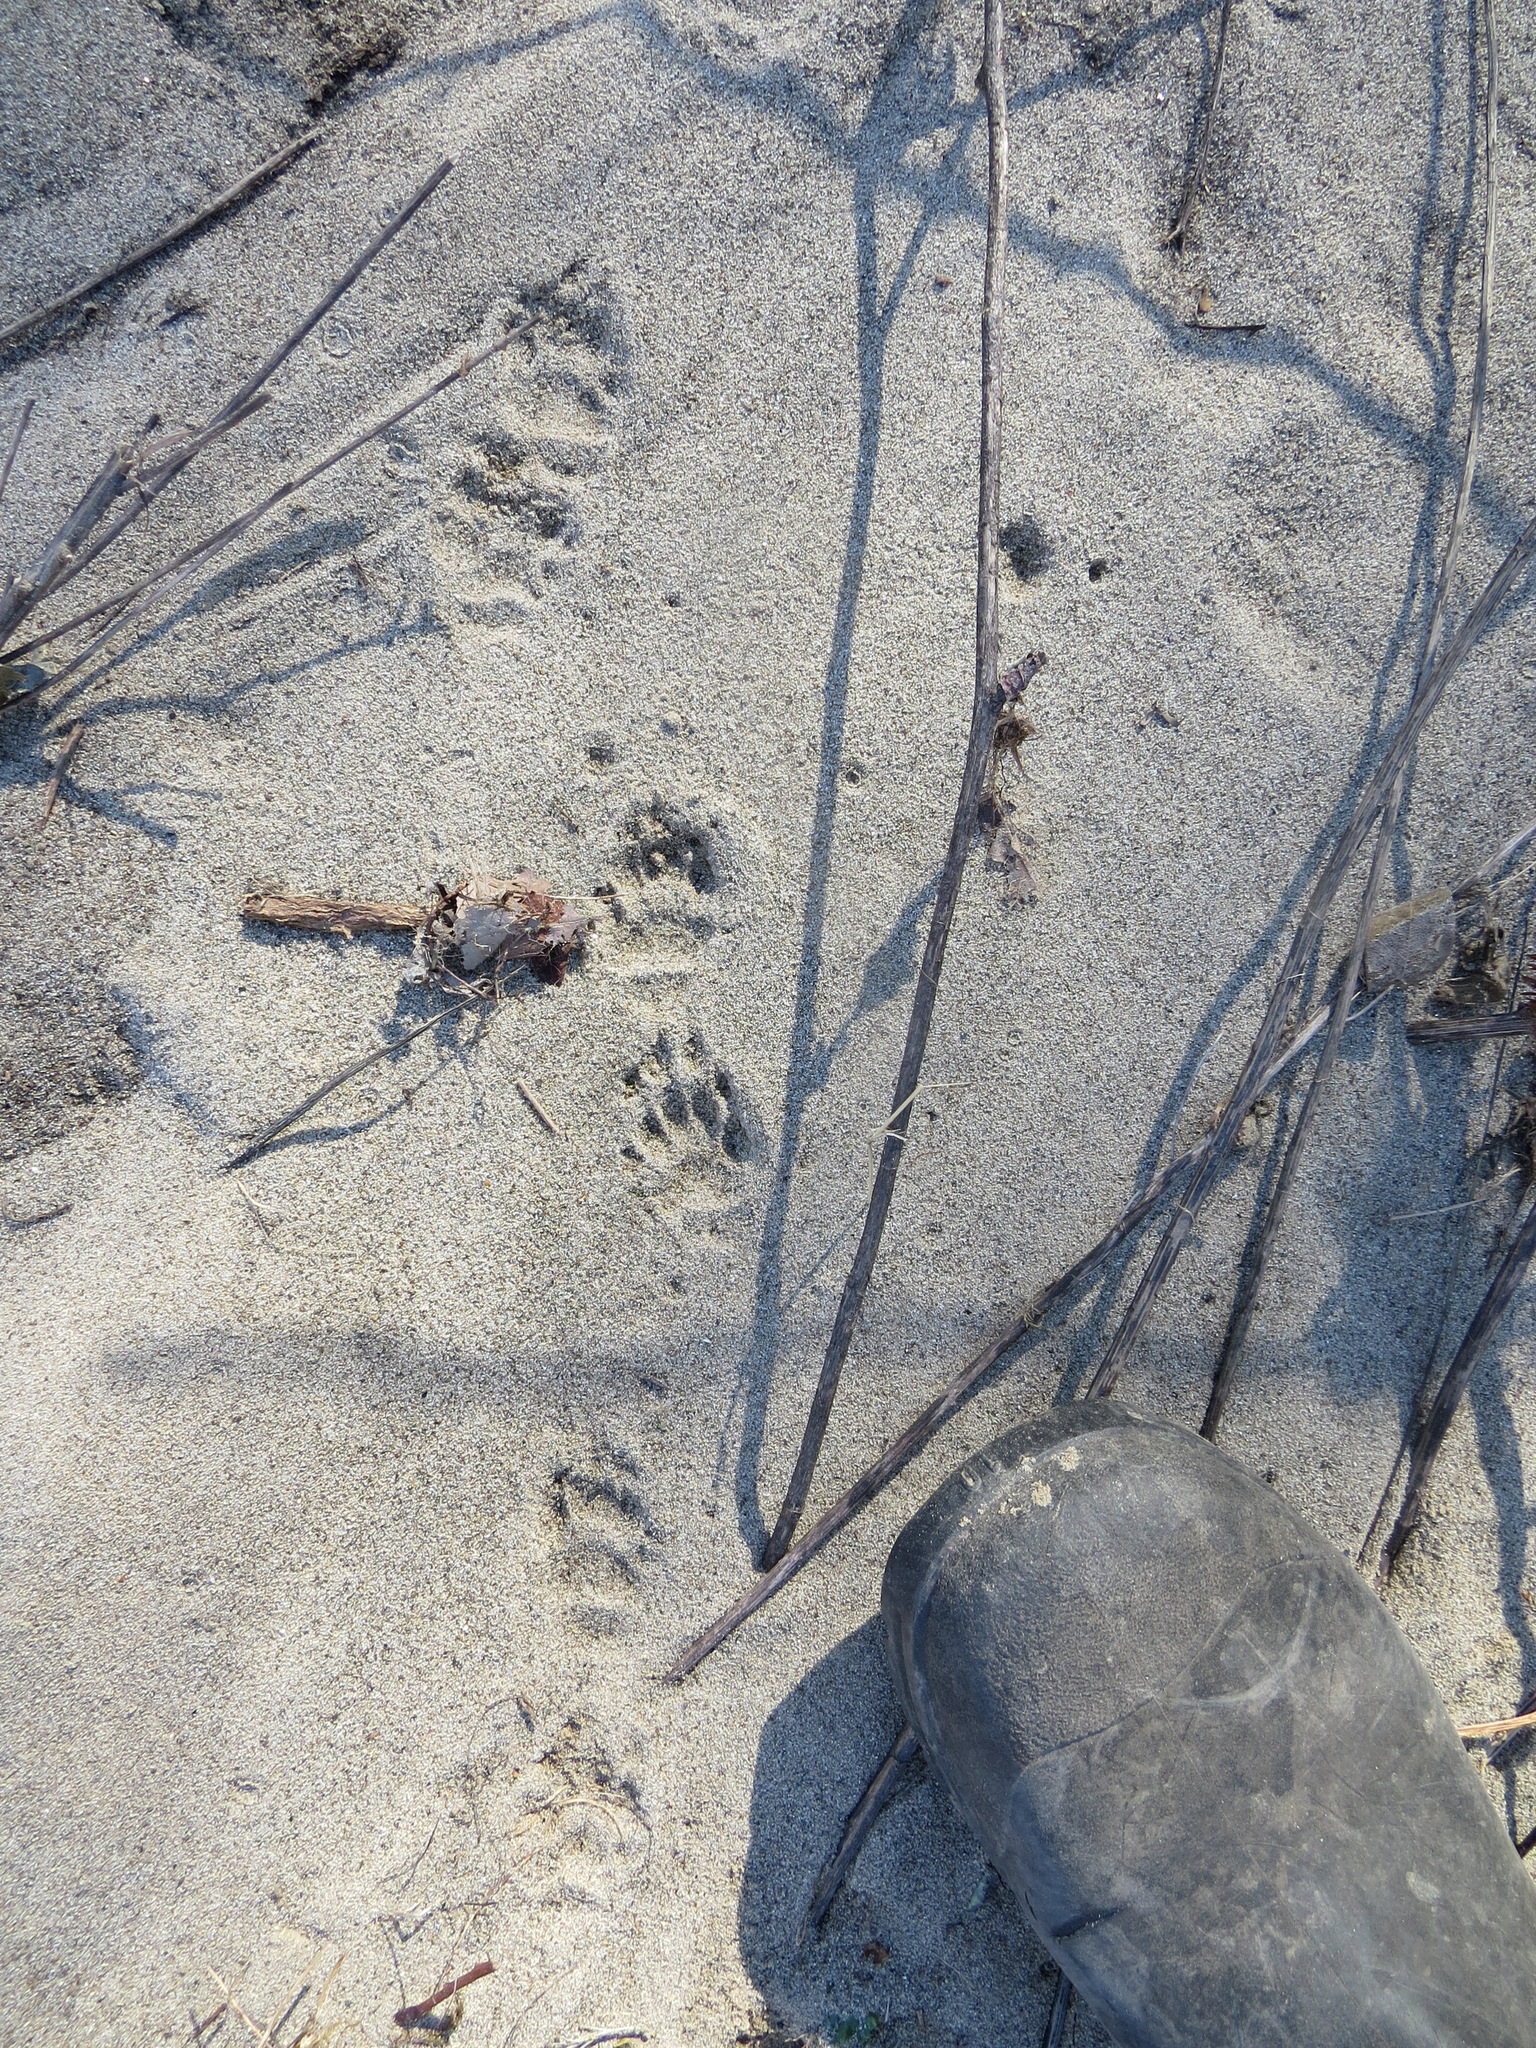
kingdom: Animalia
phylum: Chordata
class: Mammalia
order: Carnivora
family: Mephitidae
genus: Mephitis
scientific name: Mephitis mephitis
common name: Striped skunk
